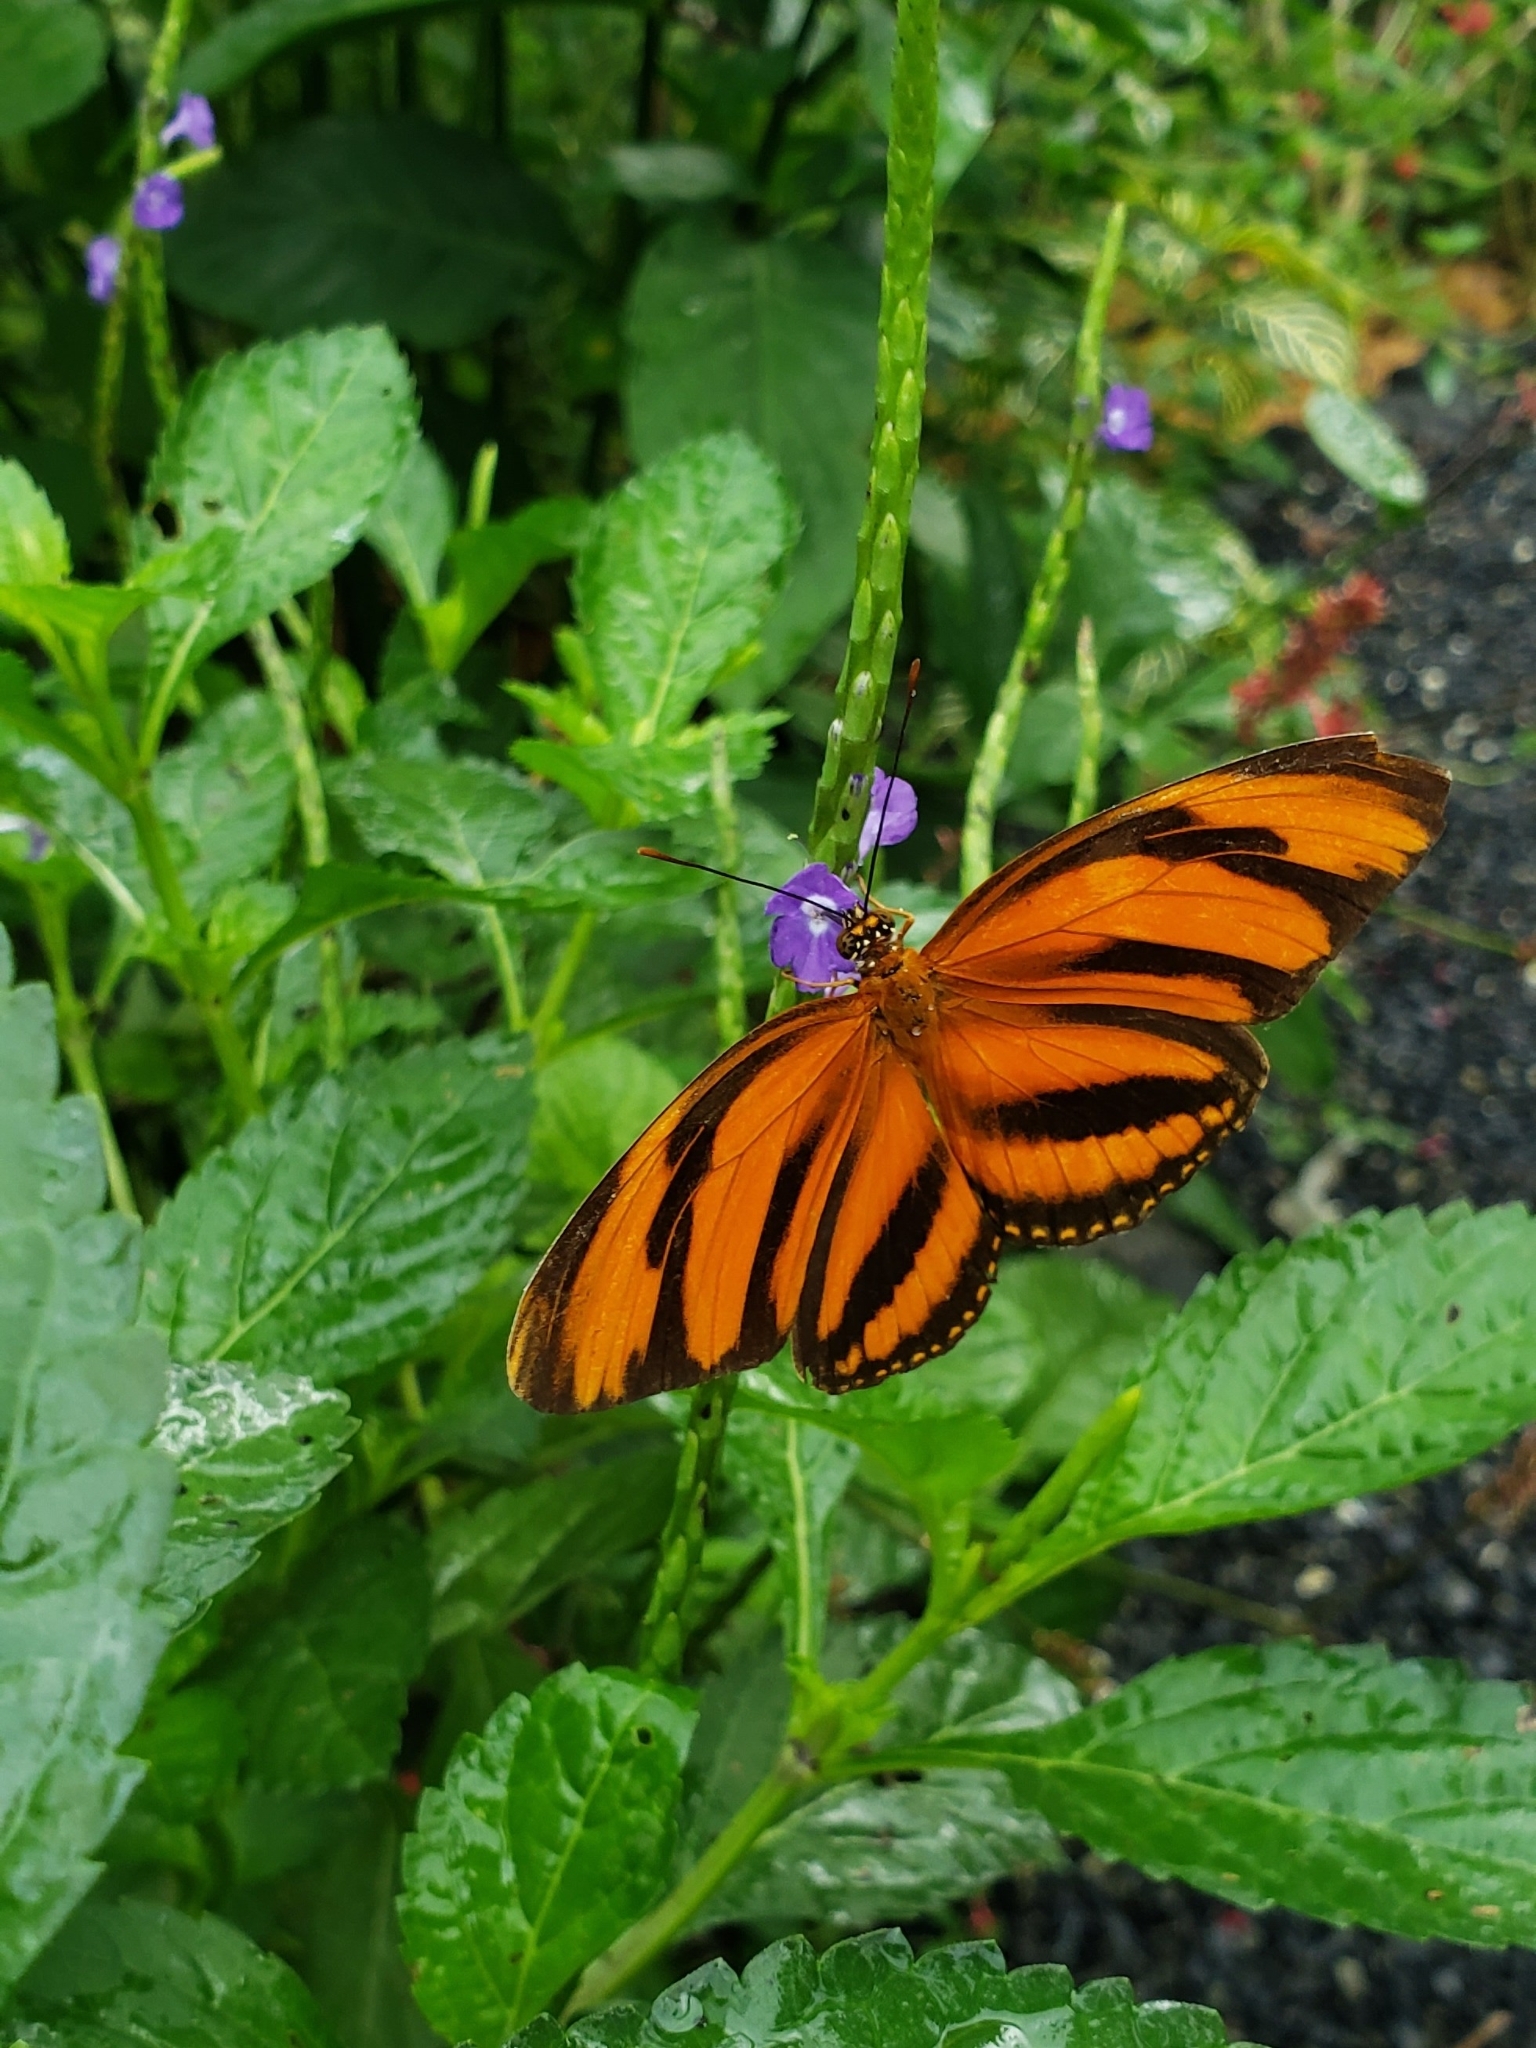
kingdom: Animalia
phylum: Arthropoda
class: Insecta
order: Lepidoptera
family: Nymphalidae
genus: Dryadula
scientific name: Dryadula phaetusa
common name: Banded orange heliconian
